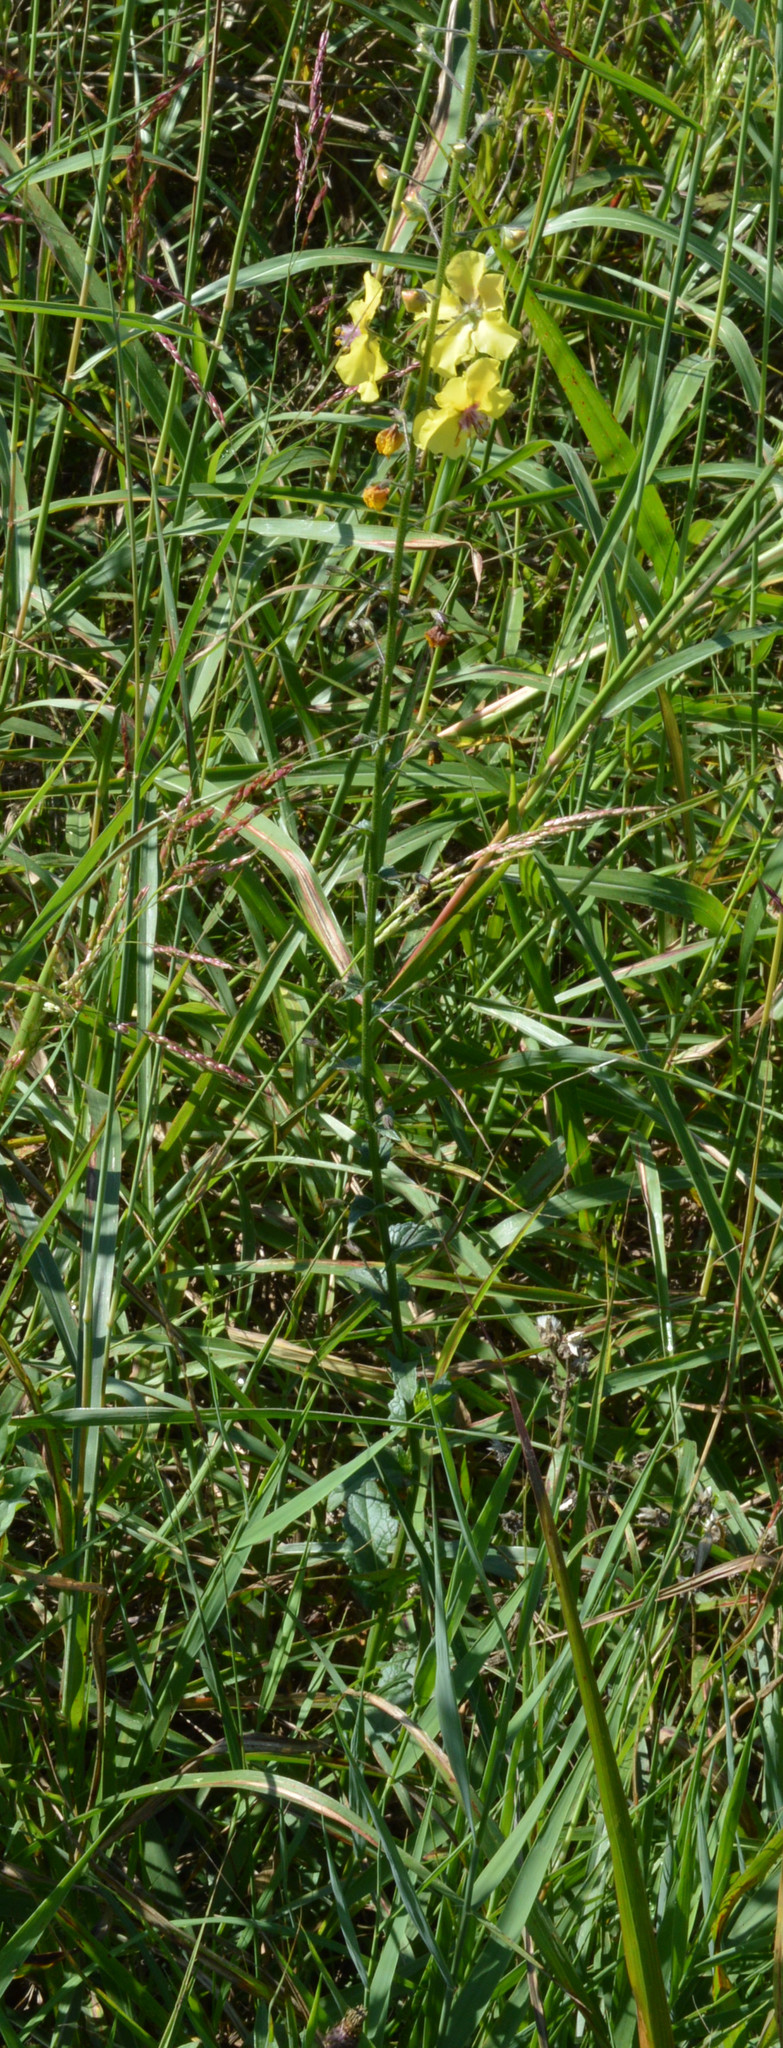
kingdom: Plantae
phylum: Tracheophyta
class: Magnoliopsida
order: Lamiales
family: Scrophulariaceae
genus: Verbascum
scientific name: Verbascum blattaria
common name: Moth mullein
